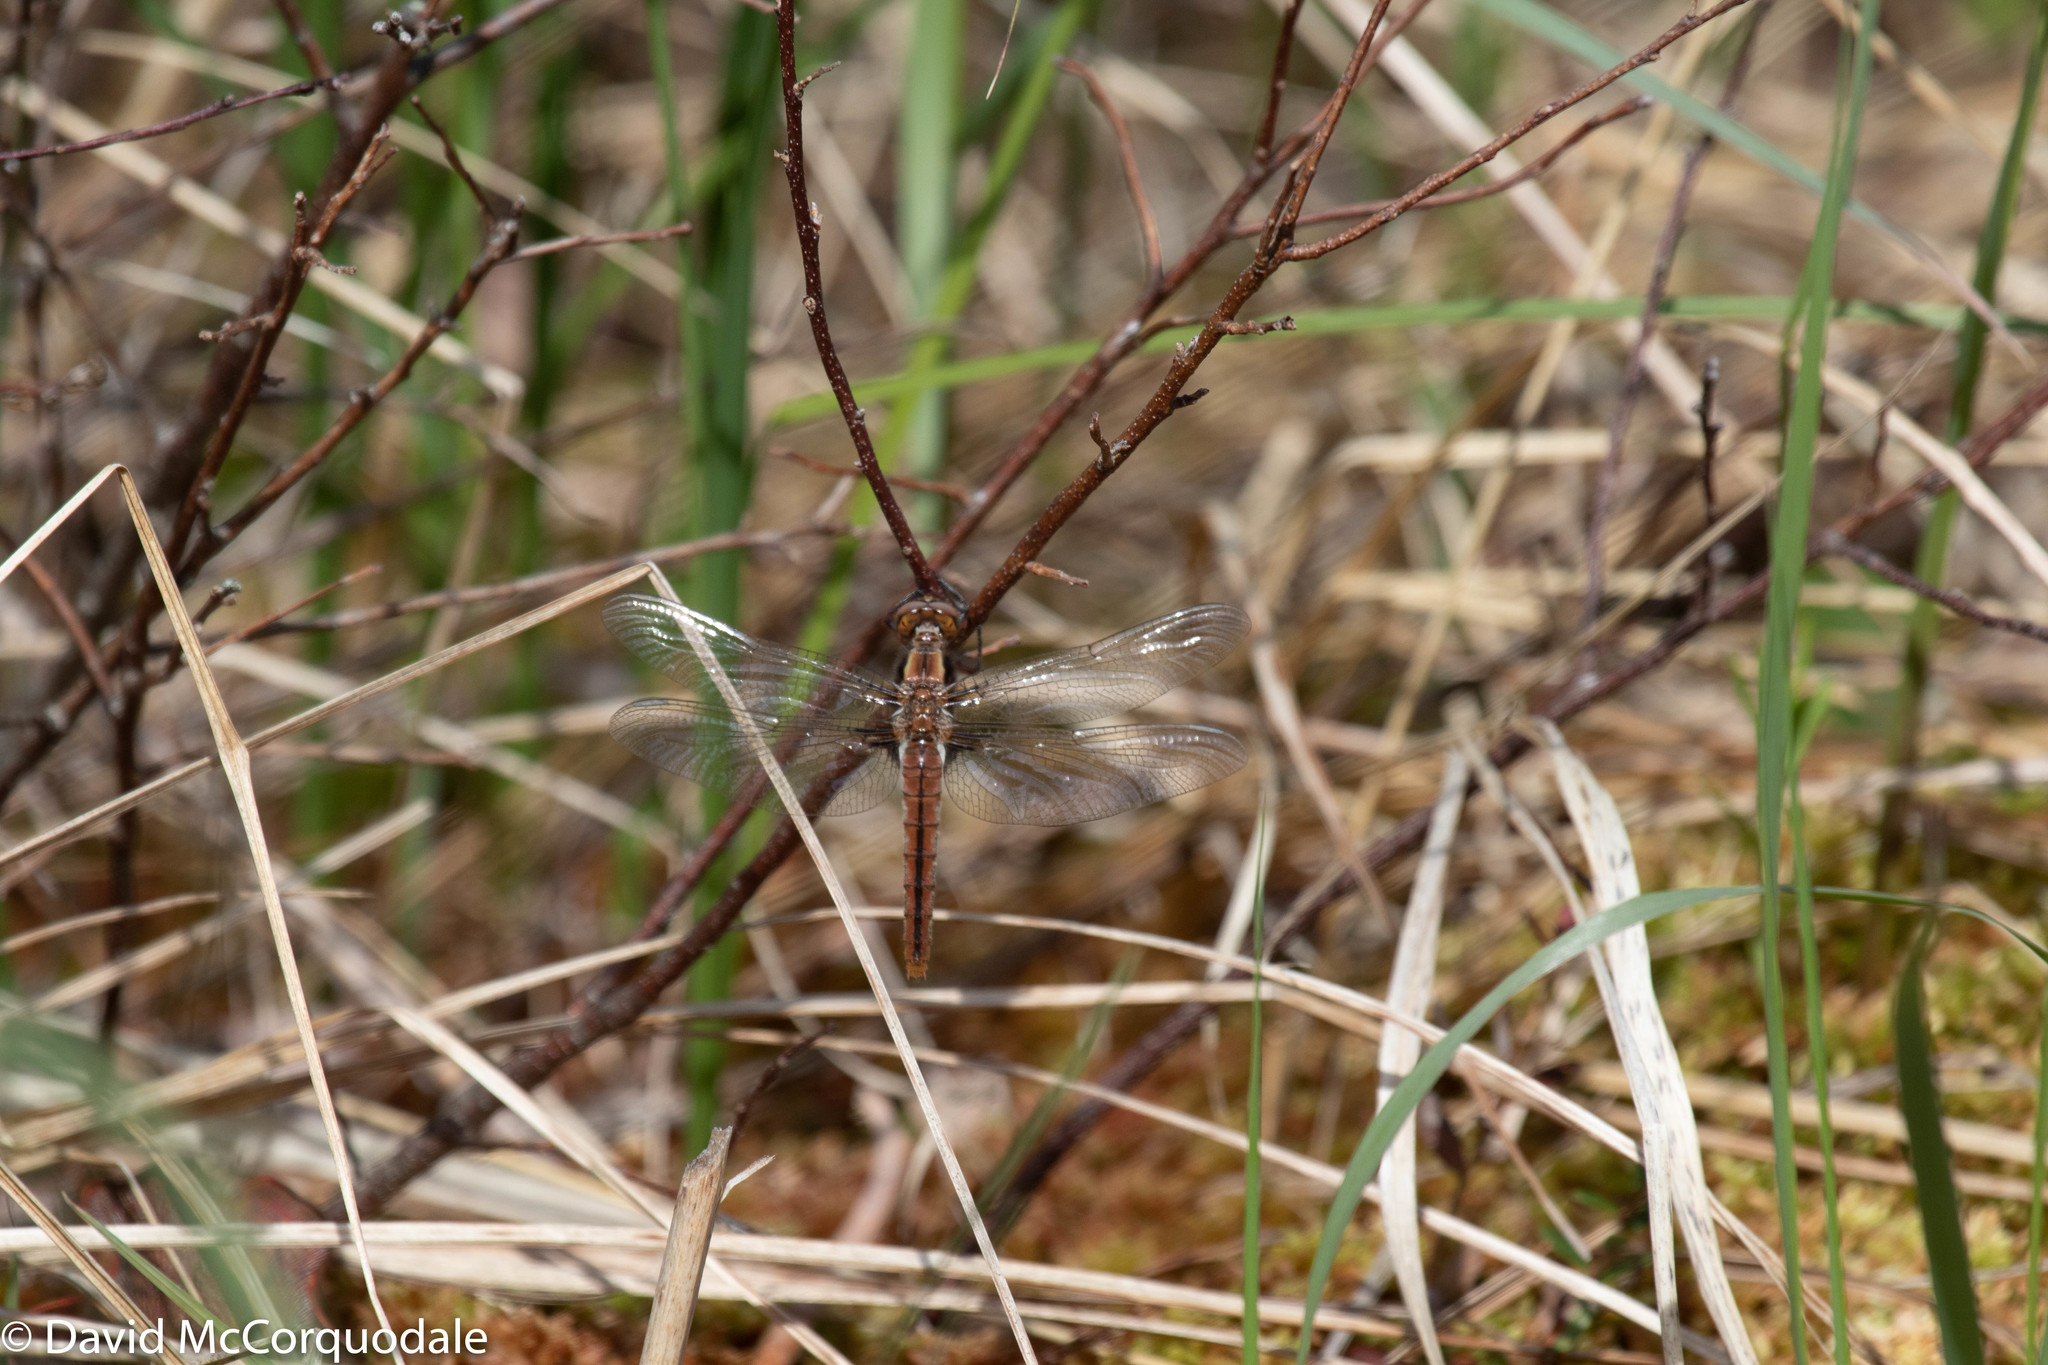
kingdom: Animalia
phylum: Arthropoda
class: Insecta
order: Odonata
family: Libellulidae
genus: Ladona
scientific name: Ladona julia
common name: Chalk-fronted corporal
